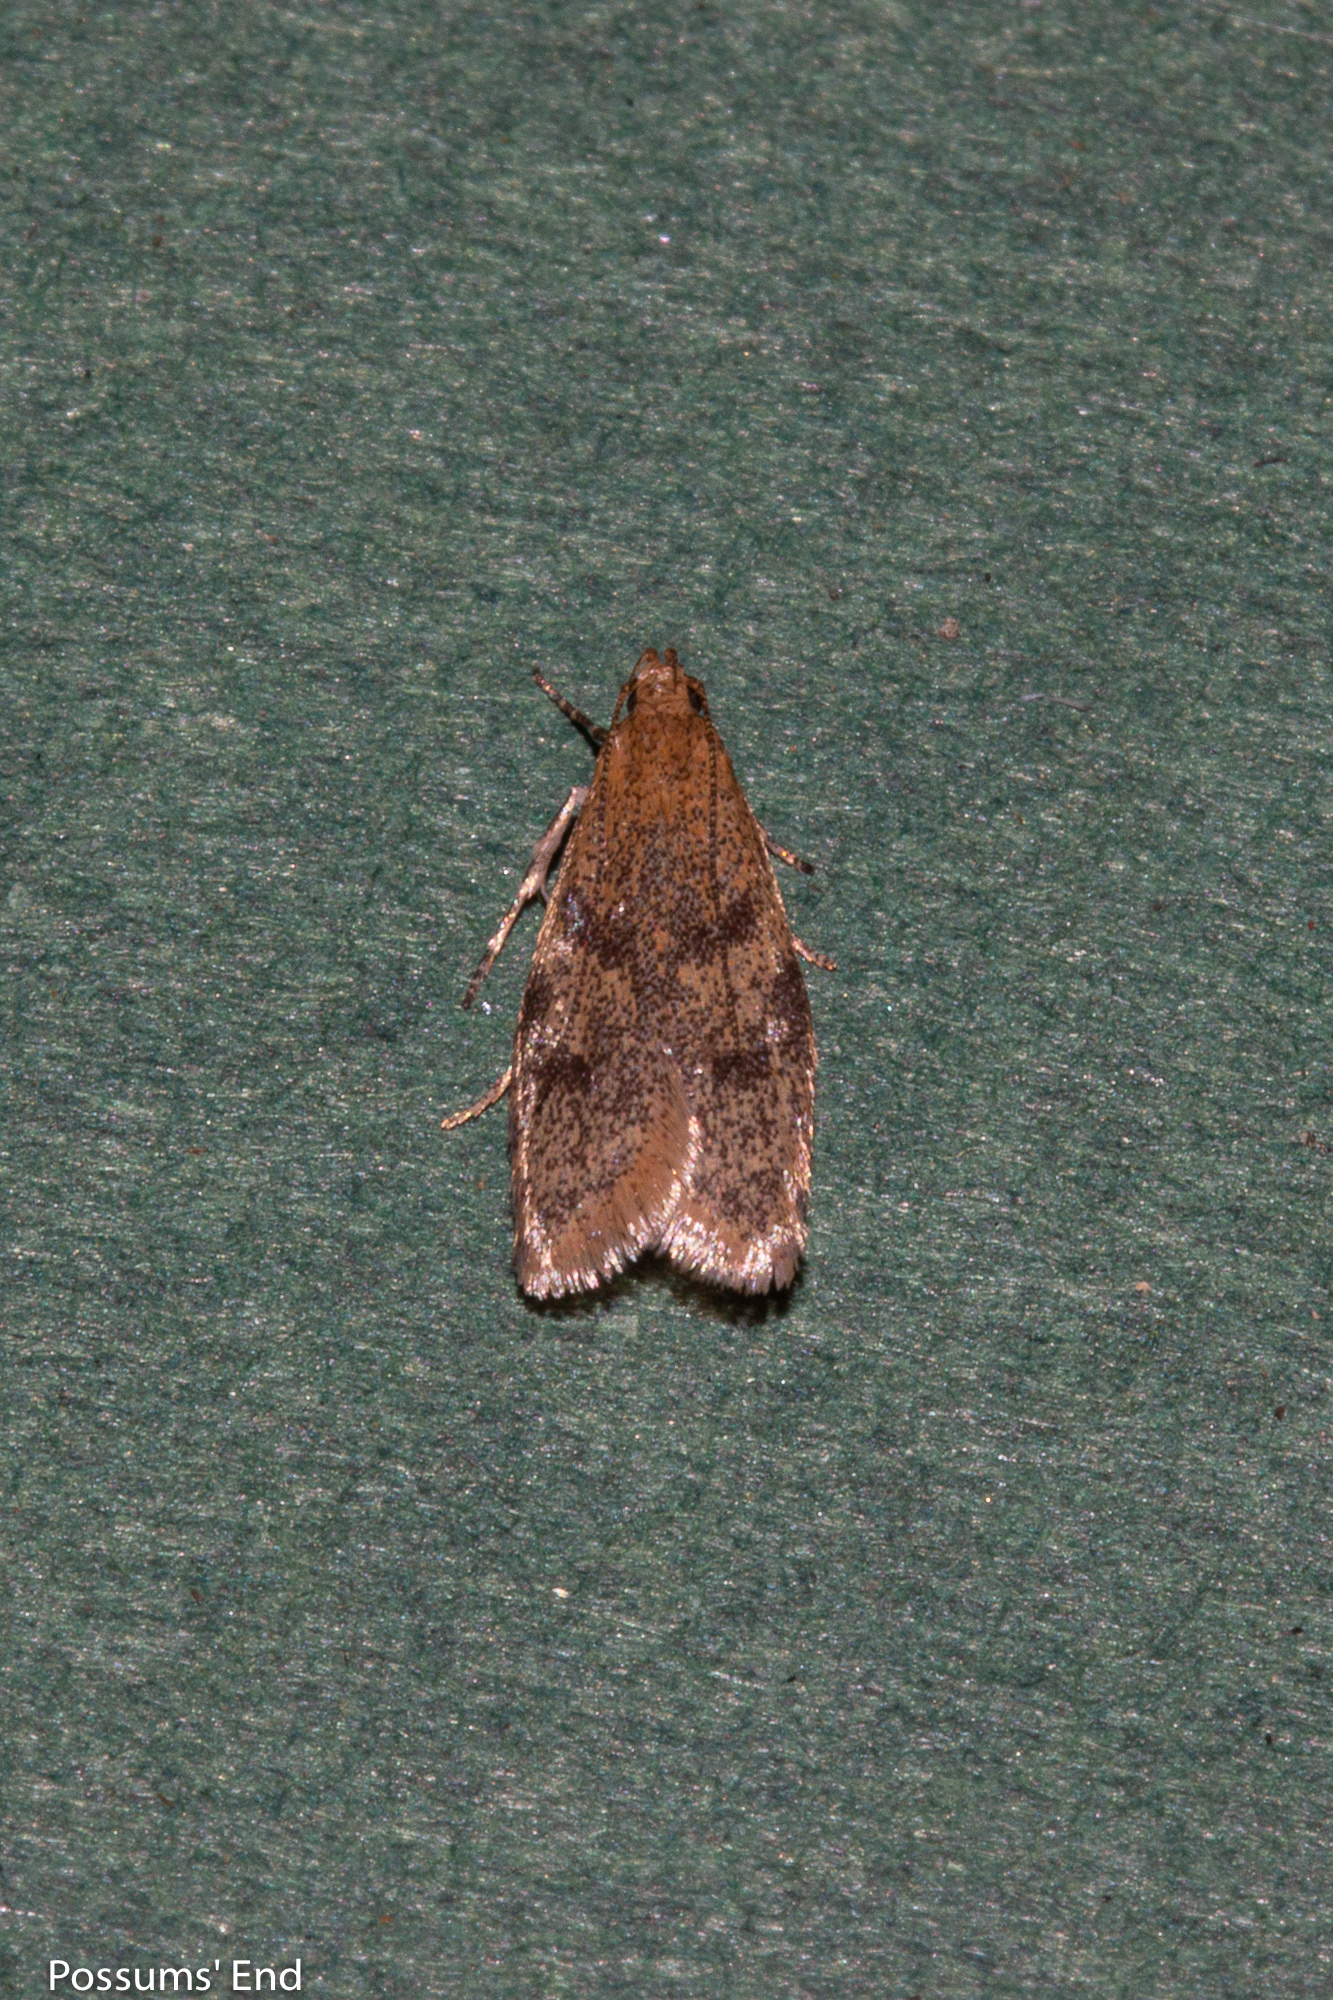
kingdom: Animalia
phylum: Arthropoda
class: Insecta
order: Lepidoptera
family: Oecophoridae
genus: Gymnobathra
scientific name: Gymnobathra tholodella
